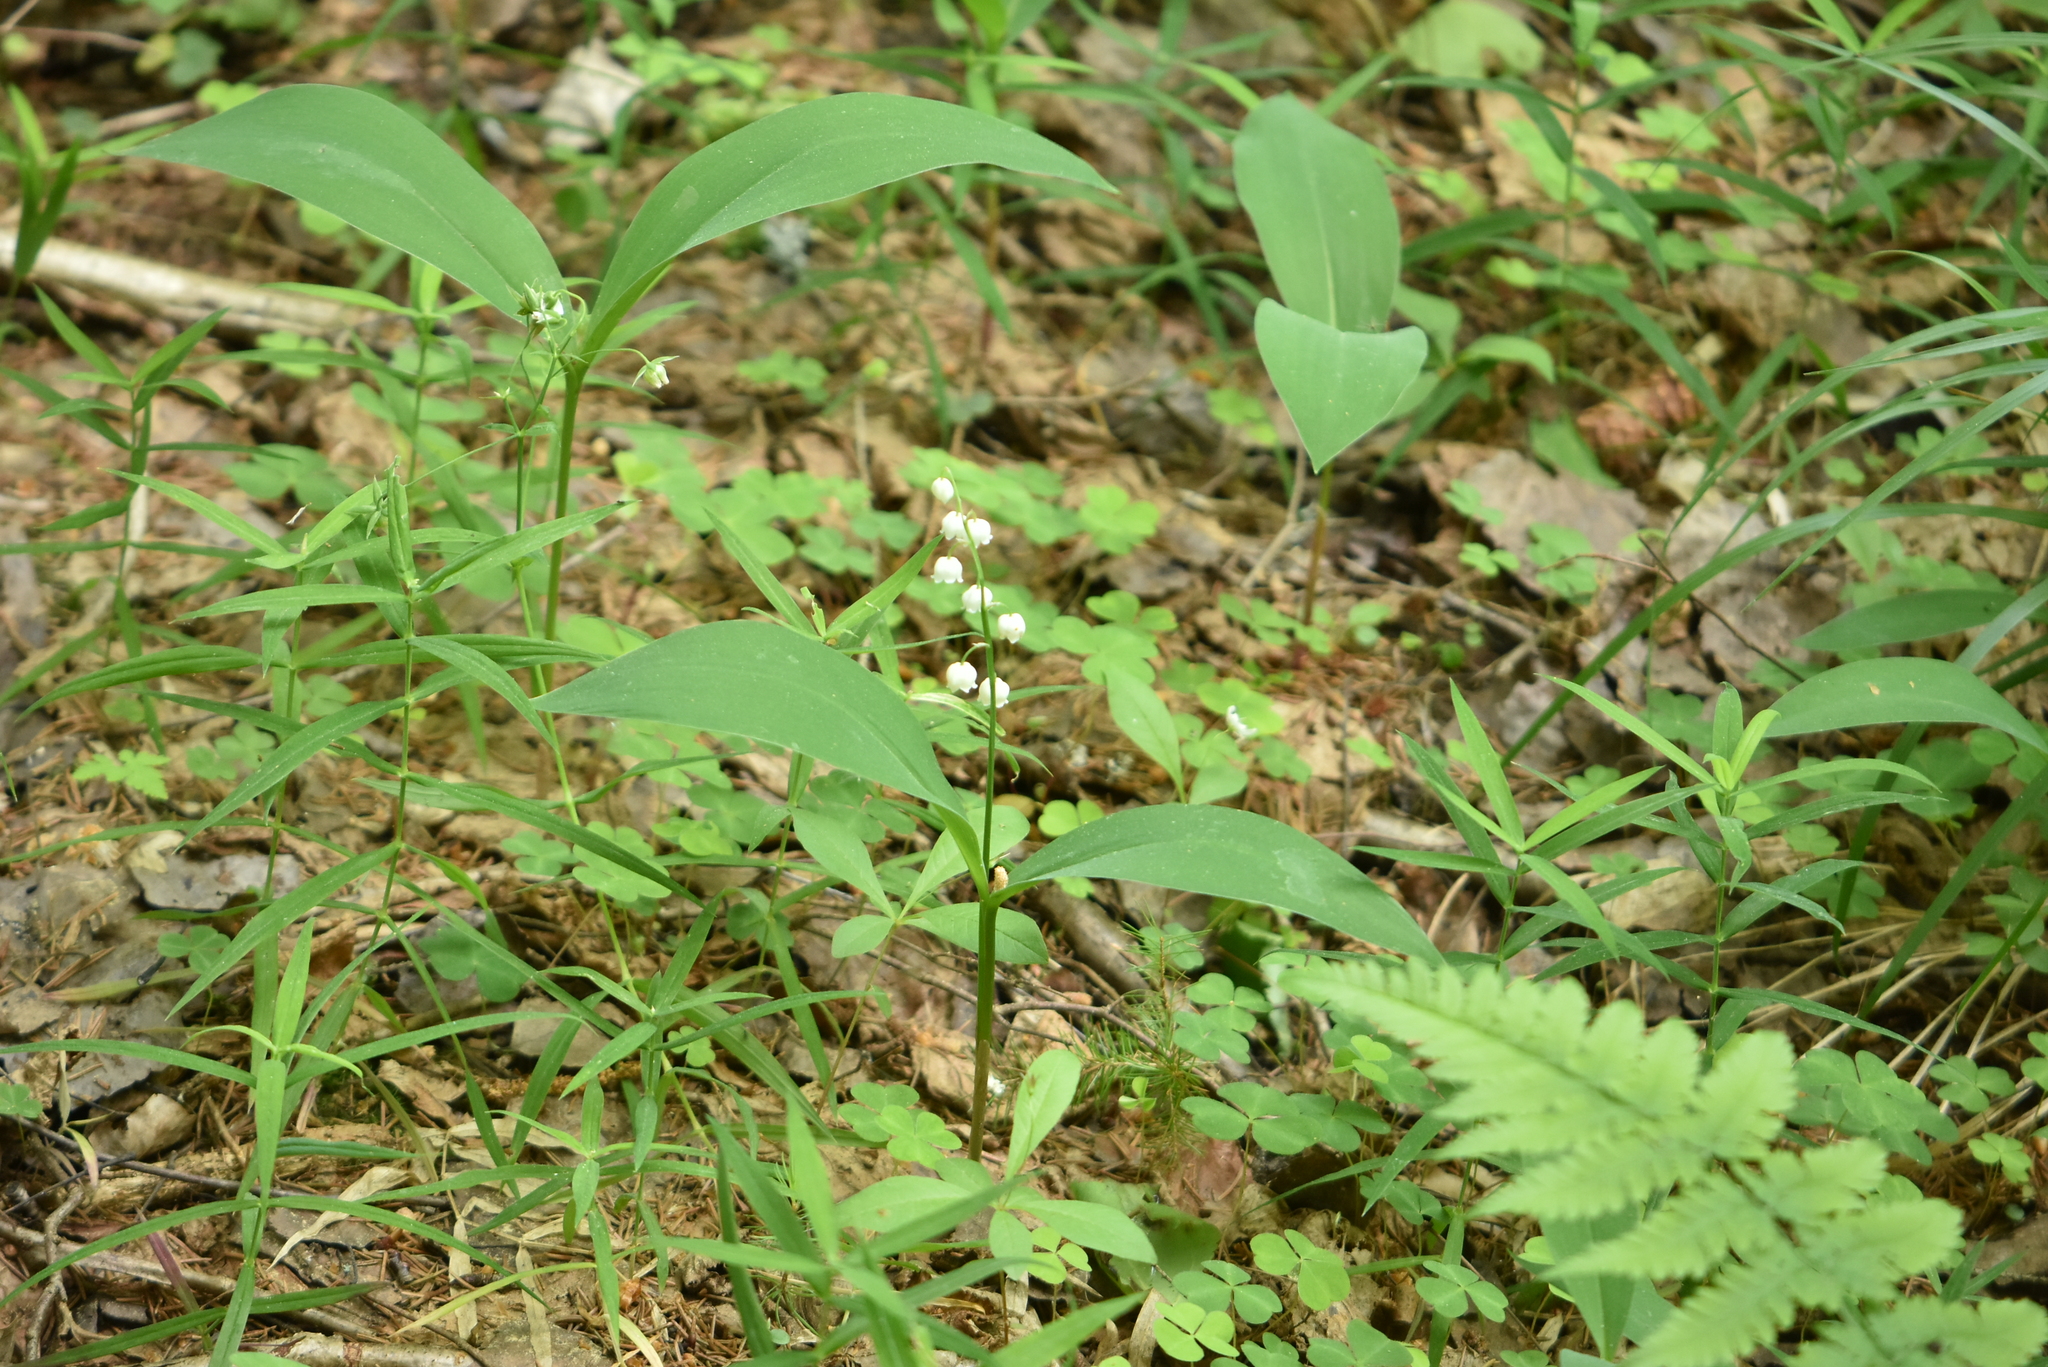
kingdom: Plantae
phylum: Tracheophyta
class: Liliopsida
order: Asparagales
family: Asparagaceae
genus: Convallaria
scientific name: Convallaria majalis
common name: Lily-of-the-valley
